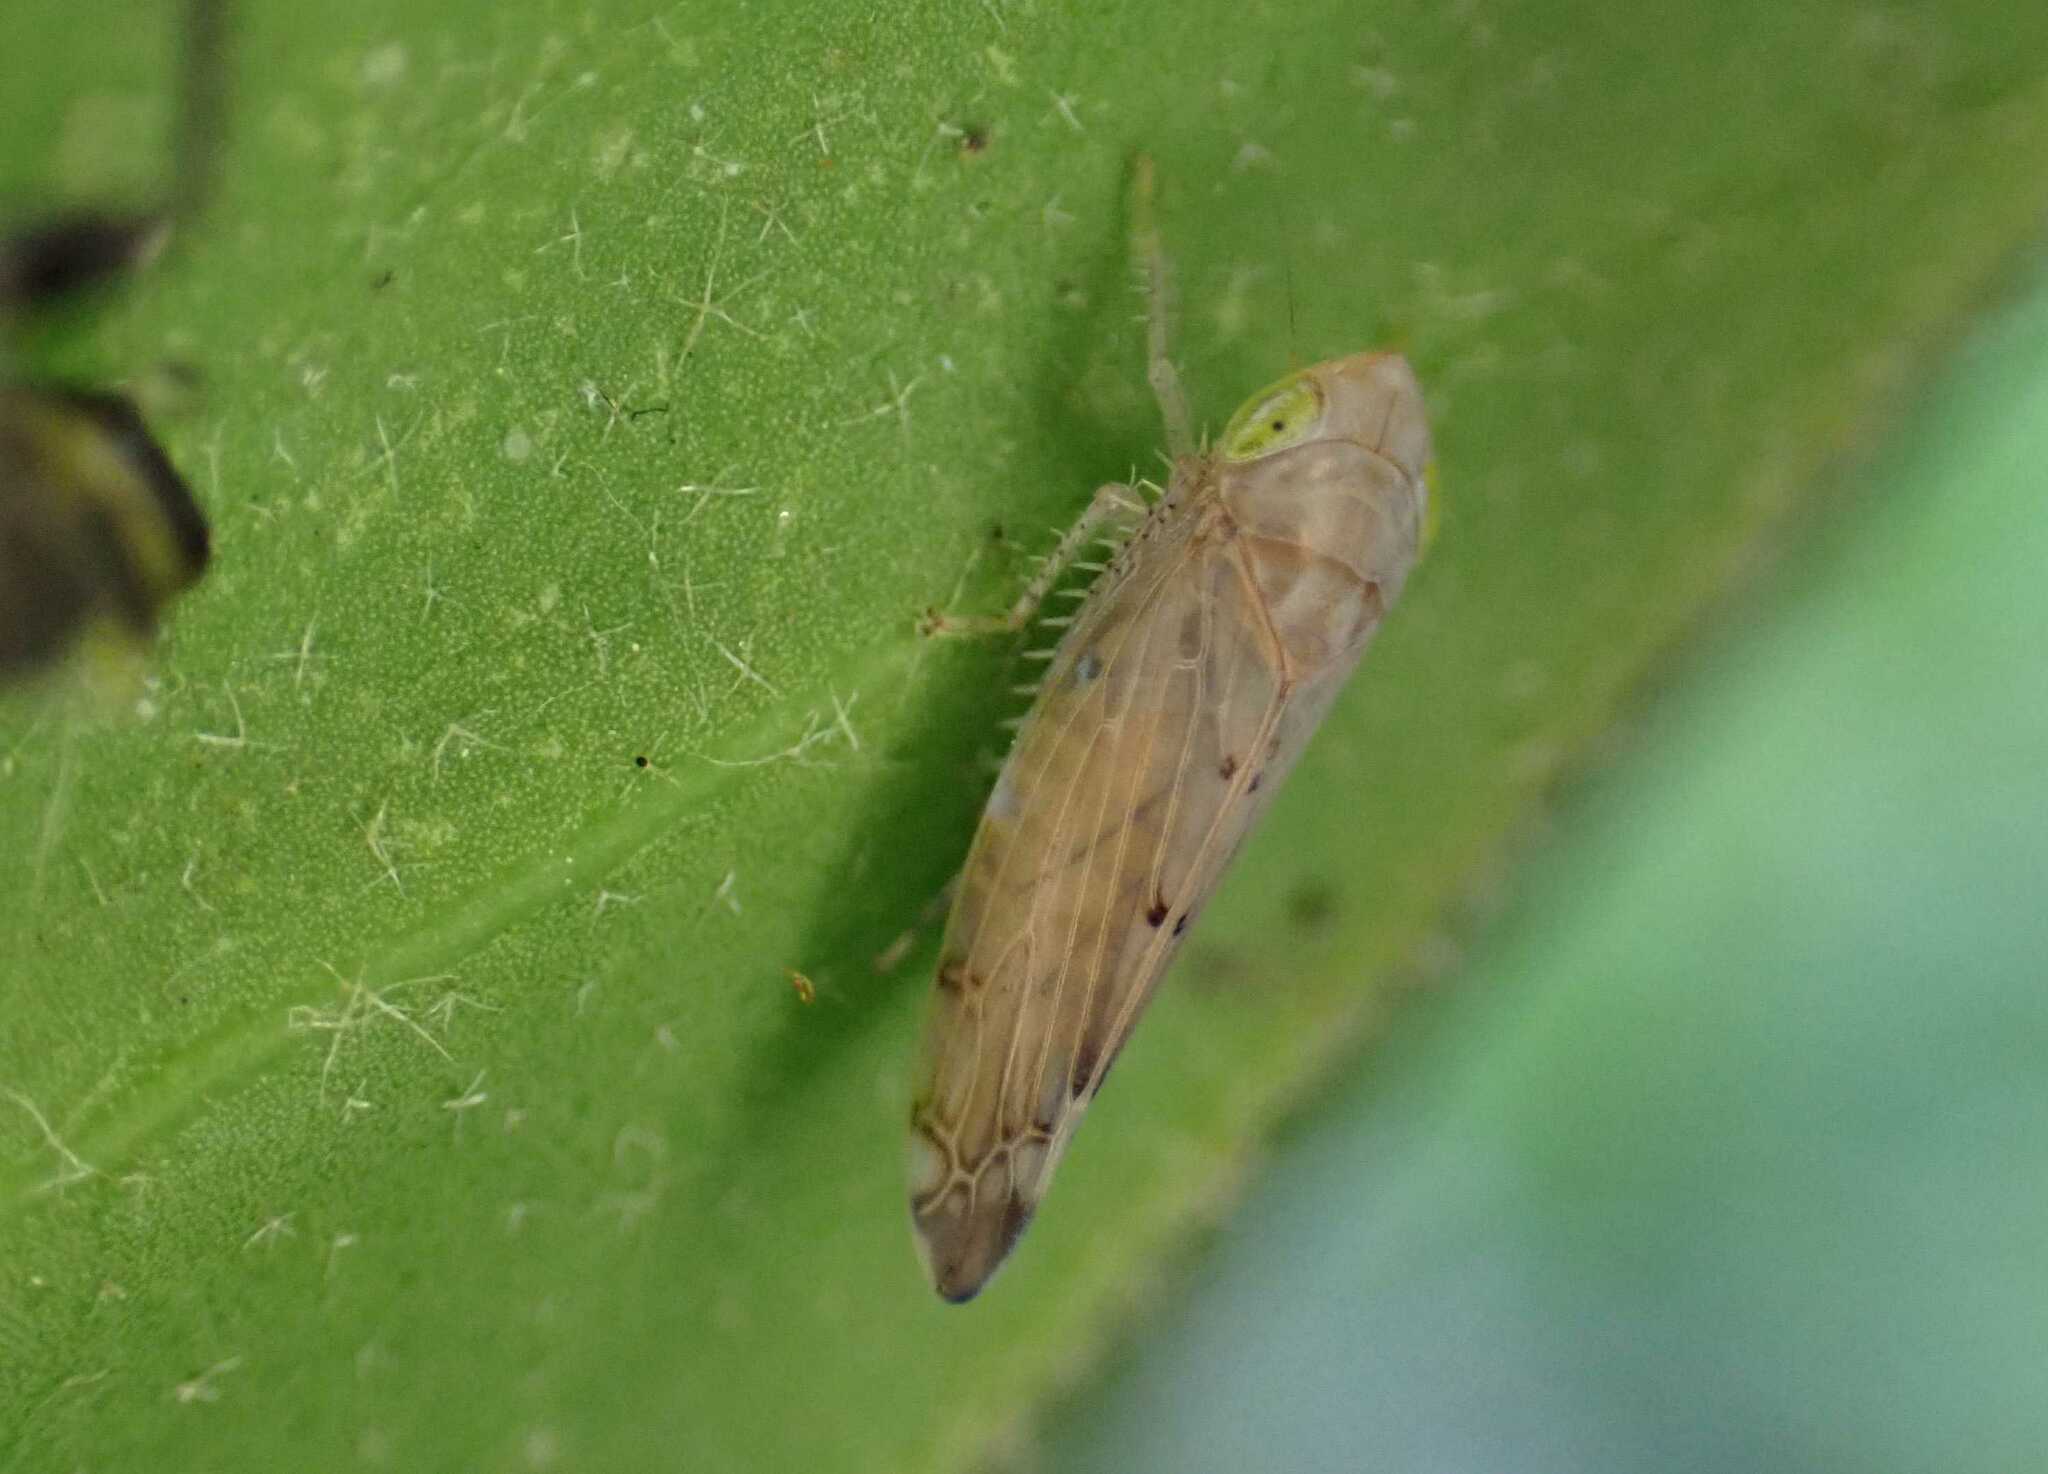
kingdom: Animalia
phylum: Arthropoda
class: Insecta
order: Hemiptera
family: Cicadellidae
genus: Synophropsis
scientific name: Synophropsis lauri
